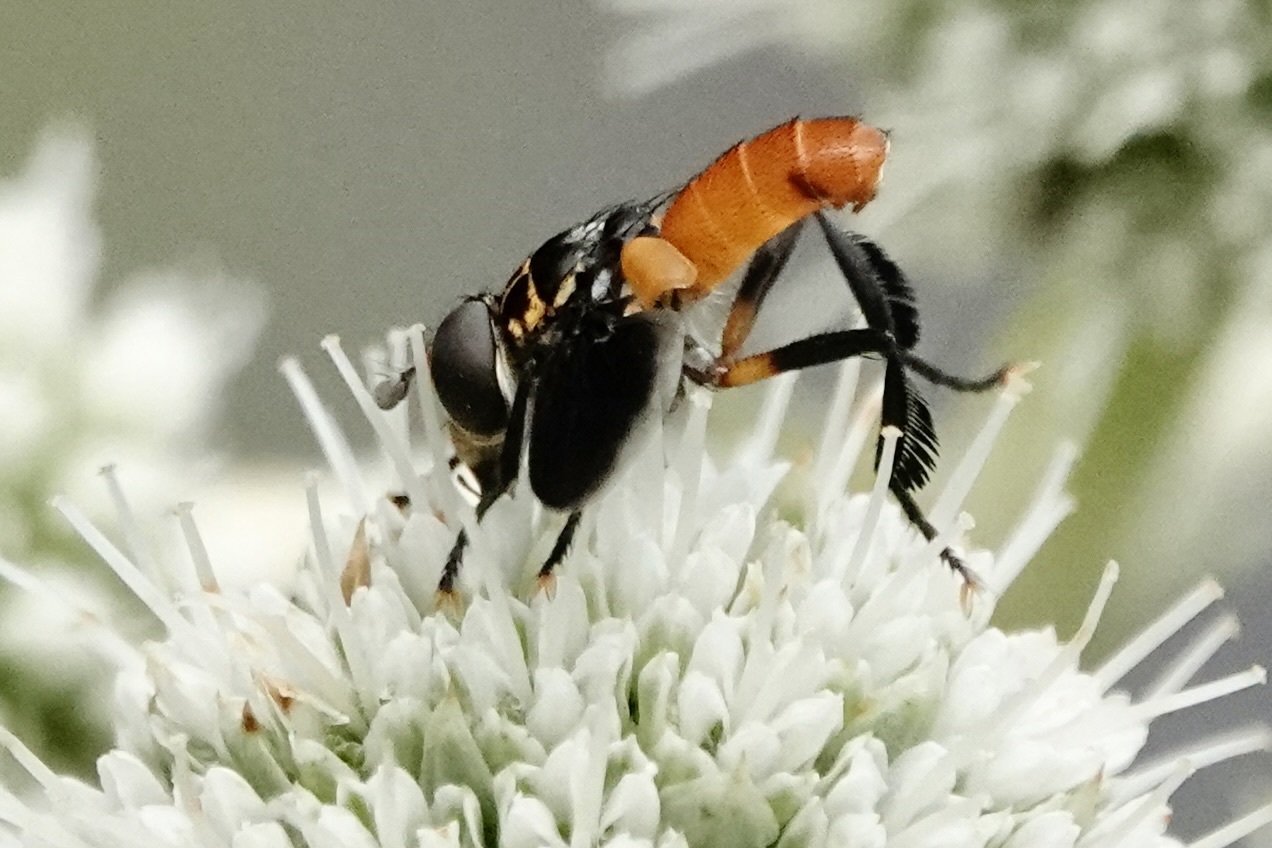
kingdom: Animalia
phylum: Arthropoda
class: Insecta
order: Diptera
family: Tachinidae
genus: Trichopoda
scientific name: Trichopoda pennipes
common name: Tachinid fly
